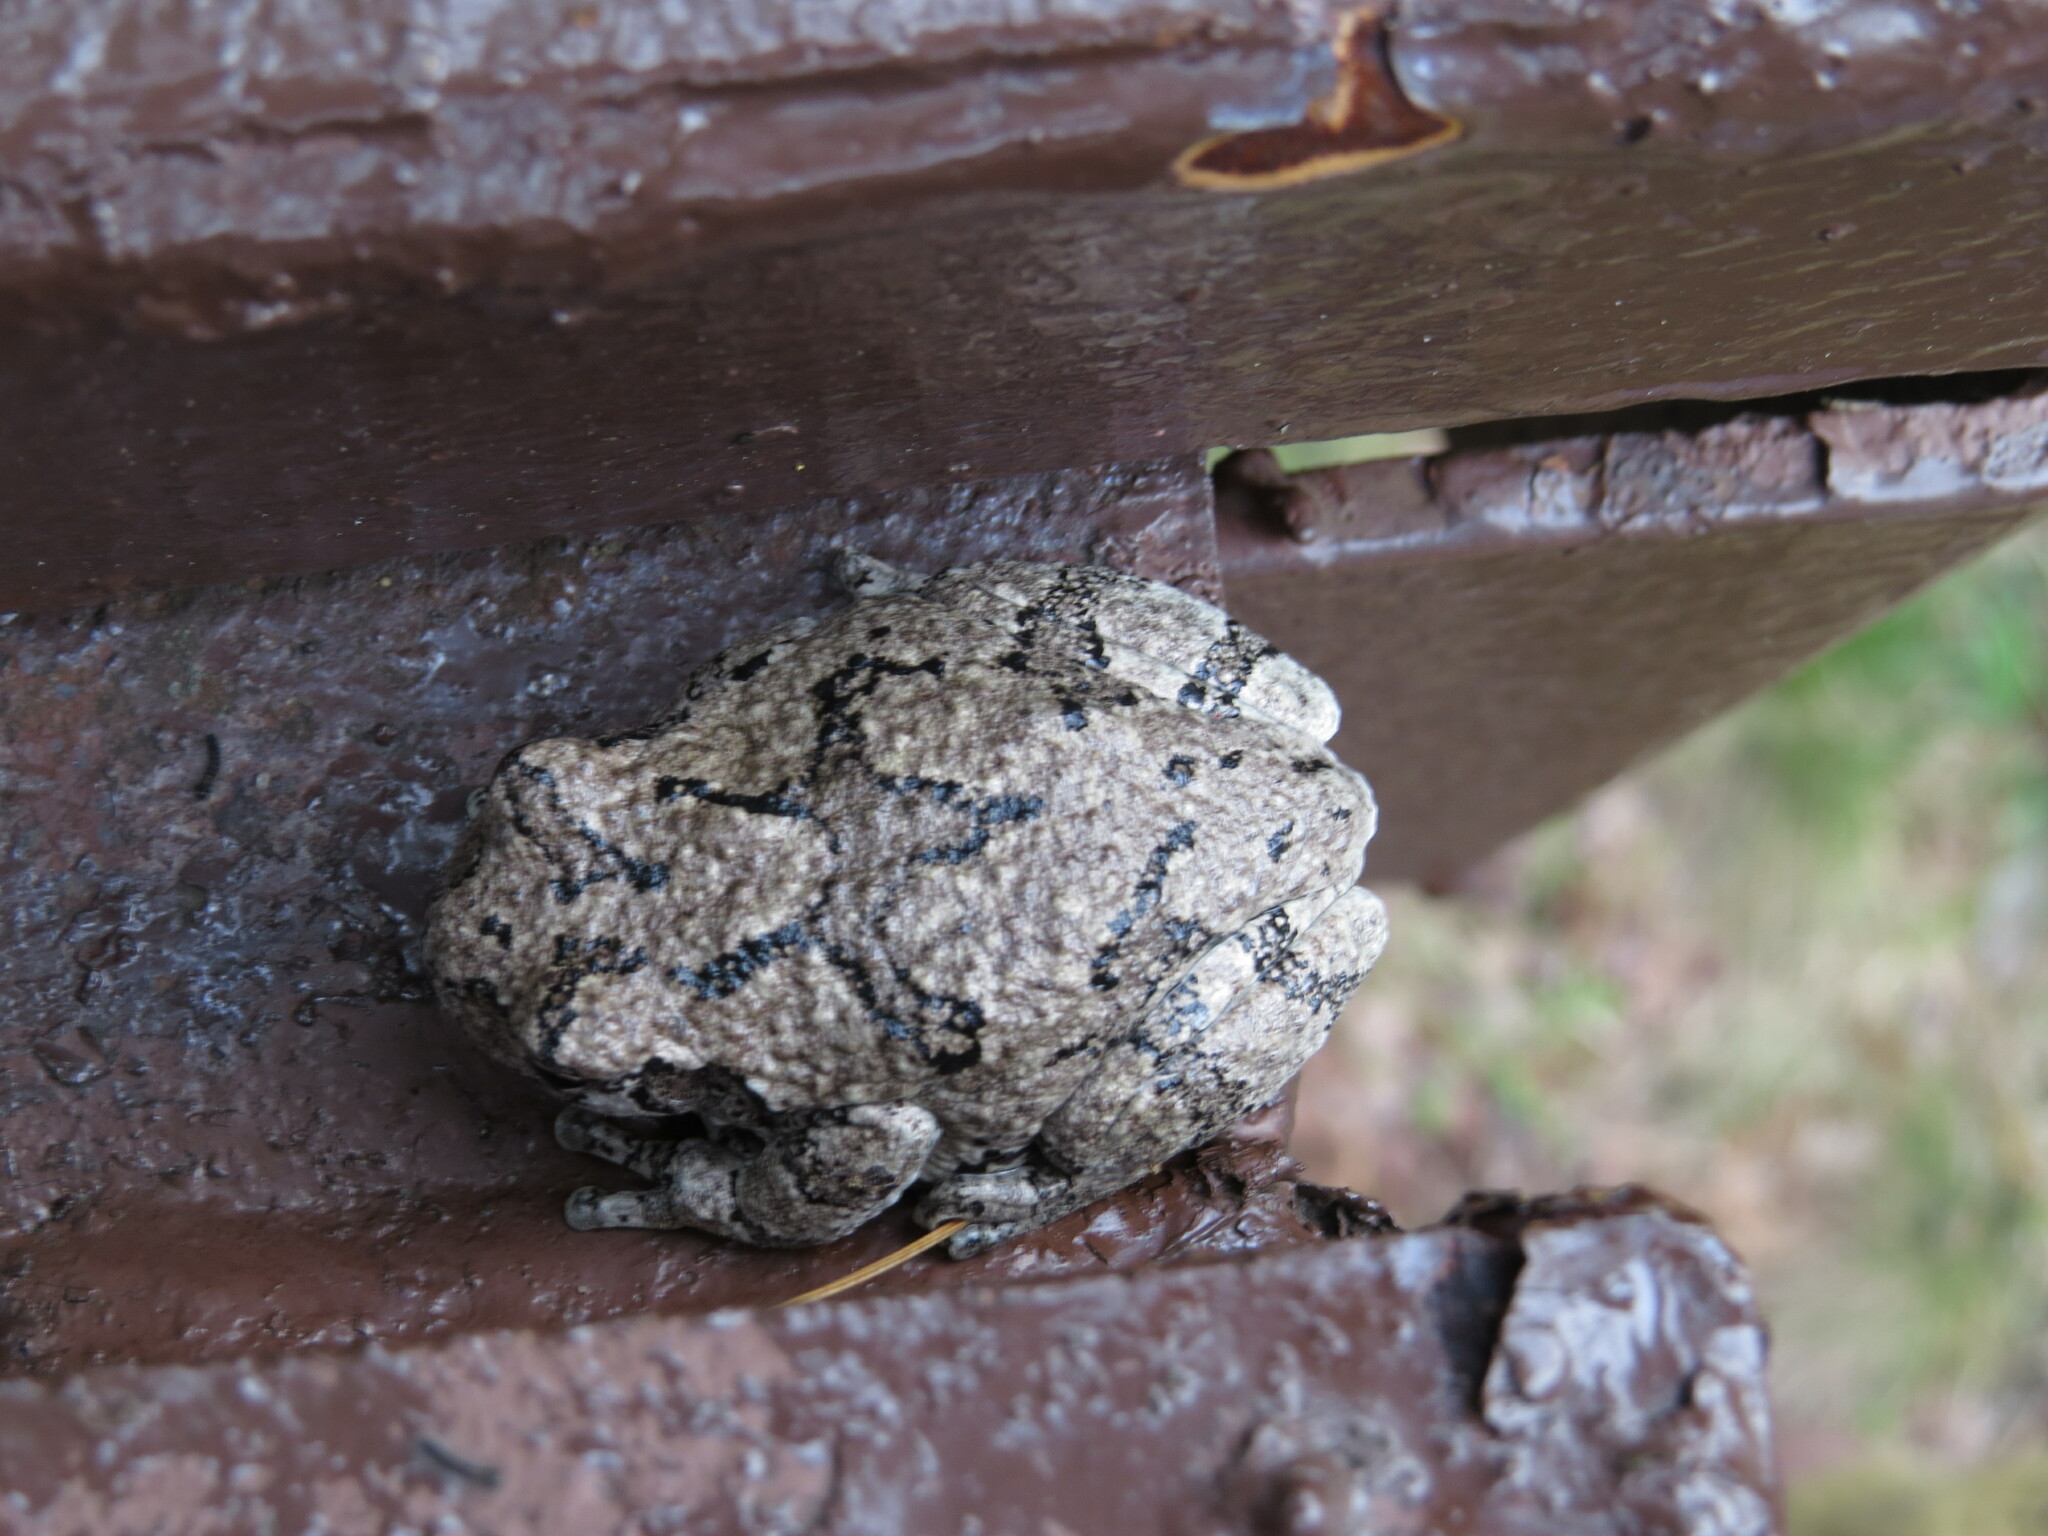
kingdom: Animalia
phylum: Chordata
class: Amphibia
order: Anura
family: Hylidae
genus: Dryophytes
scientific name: Dryophytes versicolor
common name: Gray treefrog
